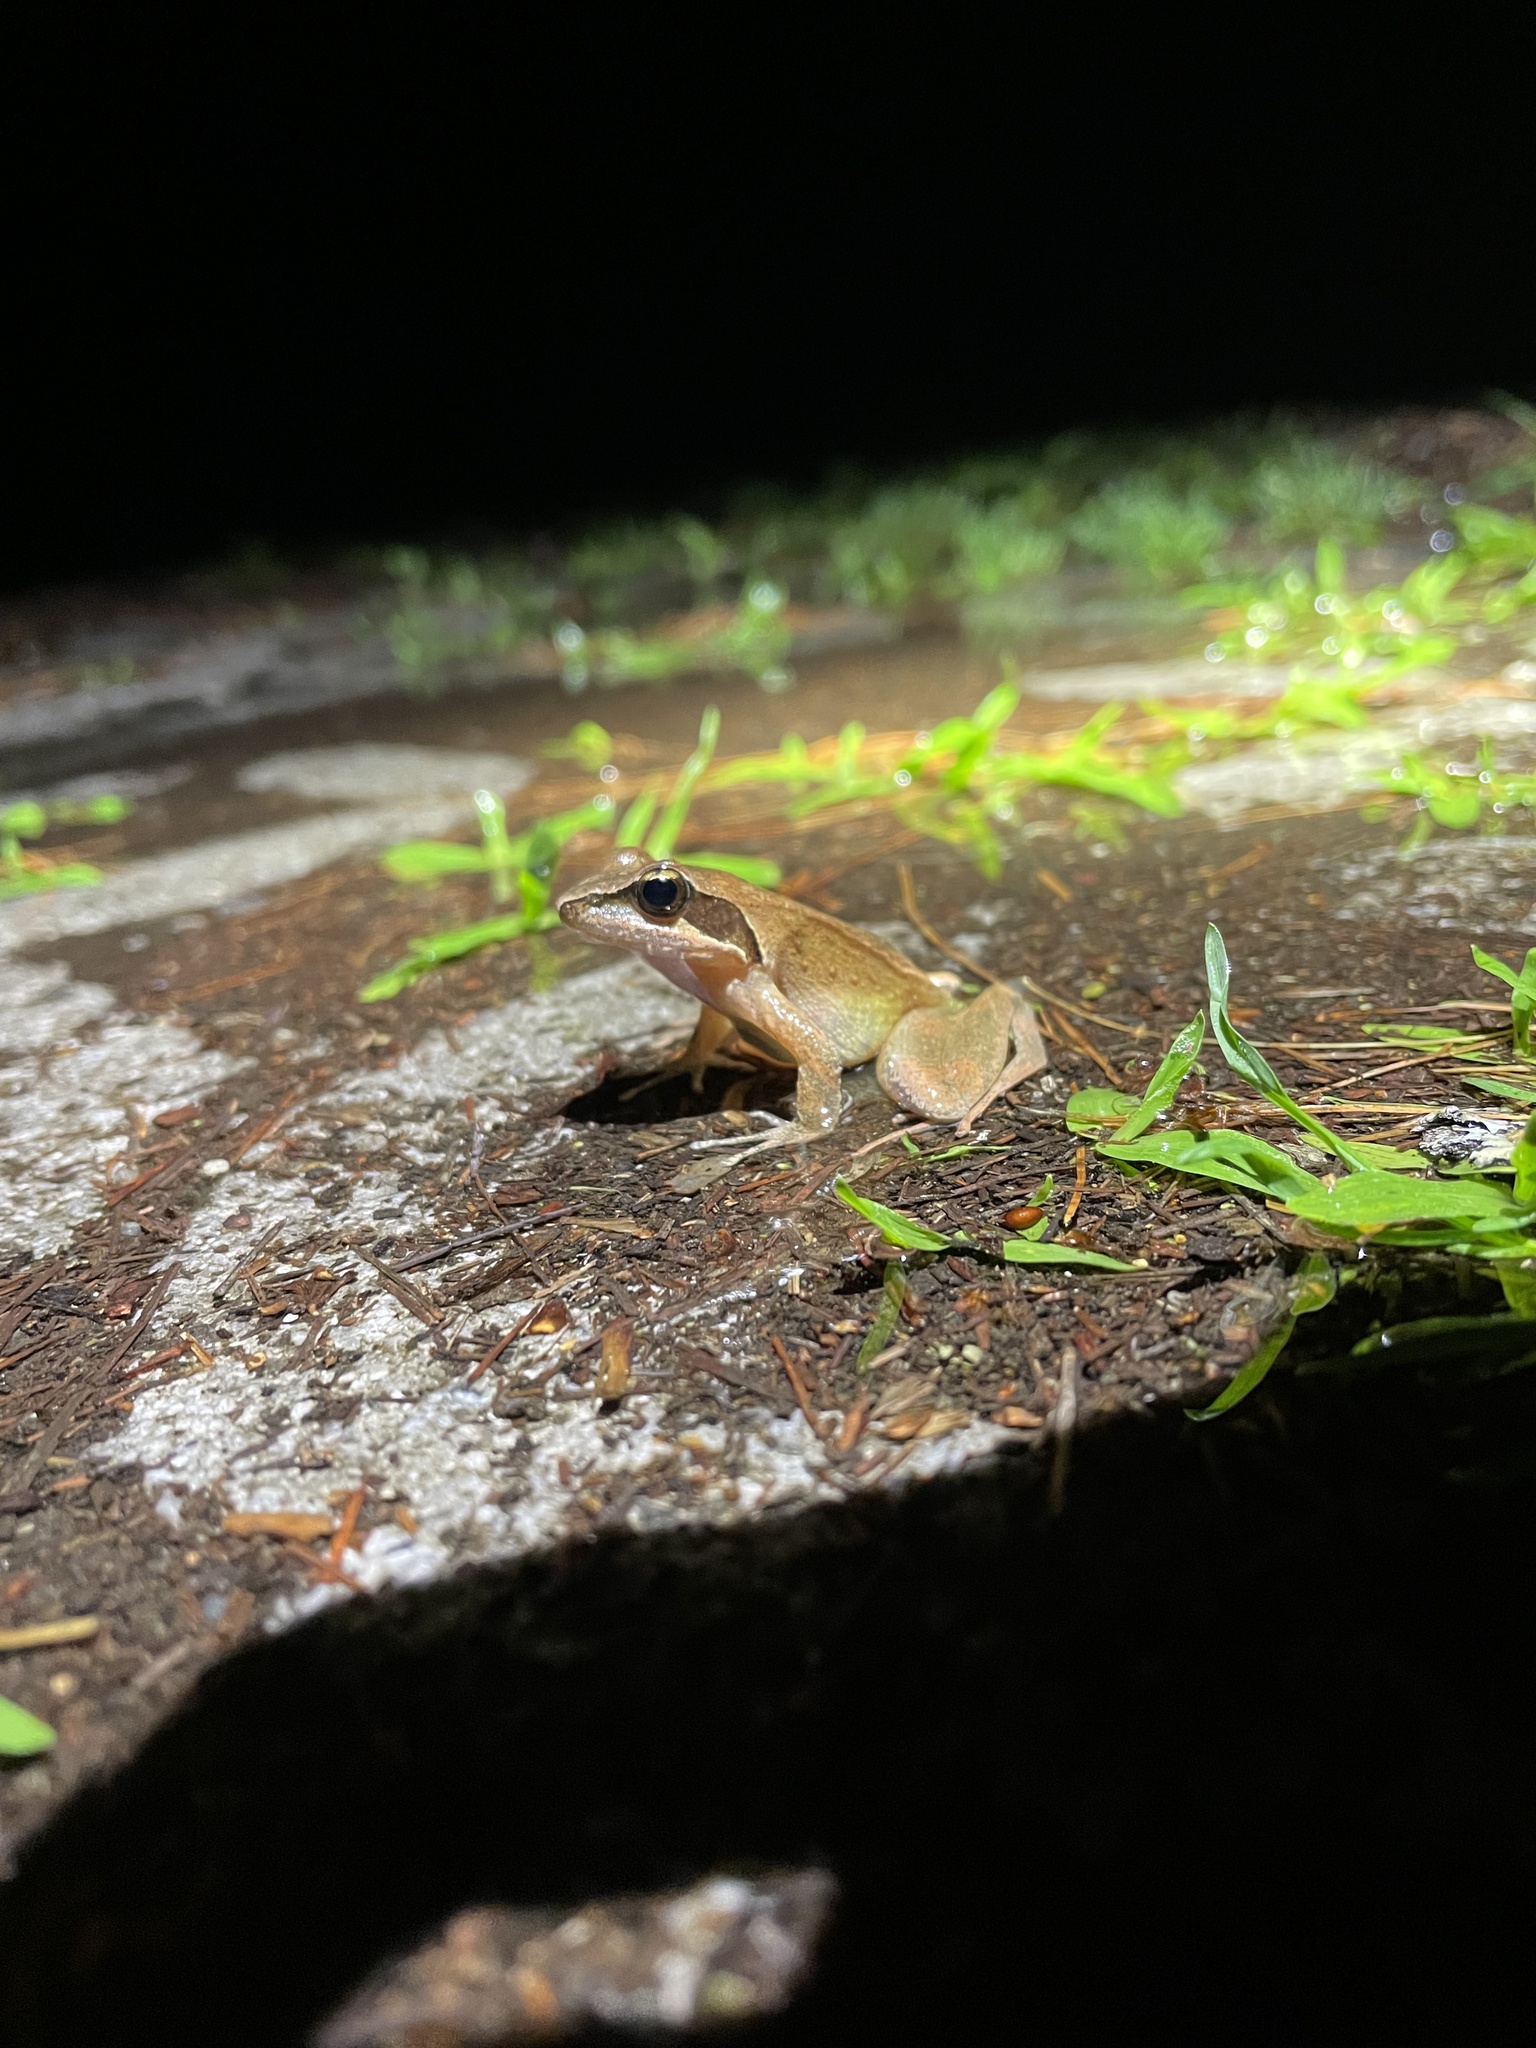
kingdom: Animalia
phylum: Chordata
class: Amphibia
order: Anura
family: Ranidae
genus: Rana
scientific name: Rana sauteri
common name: Kanshirei village frog
